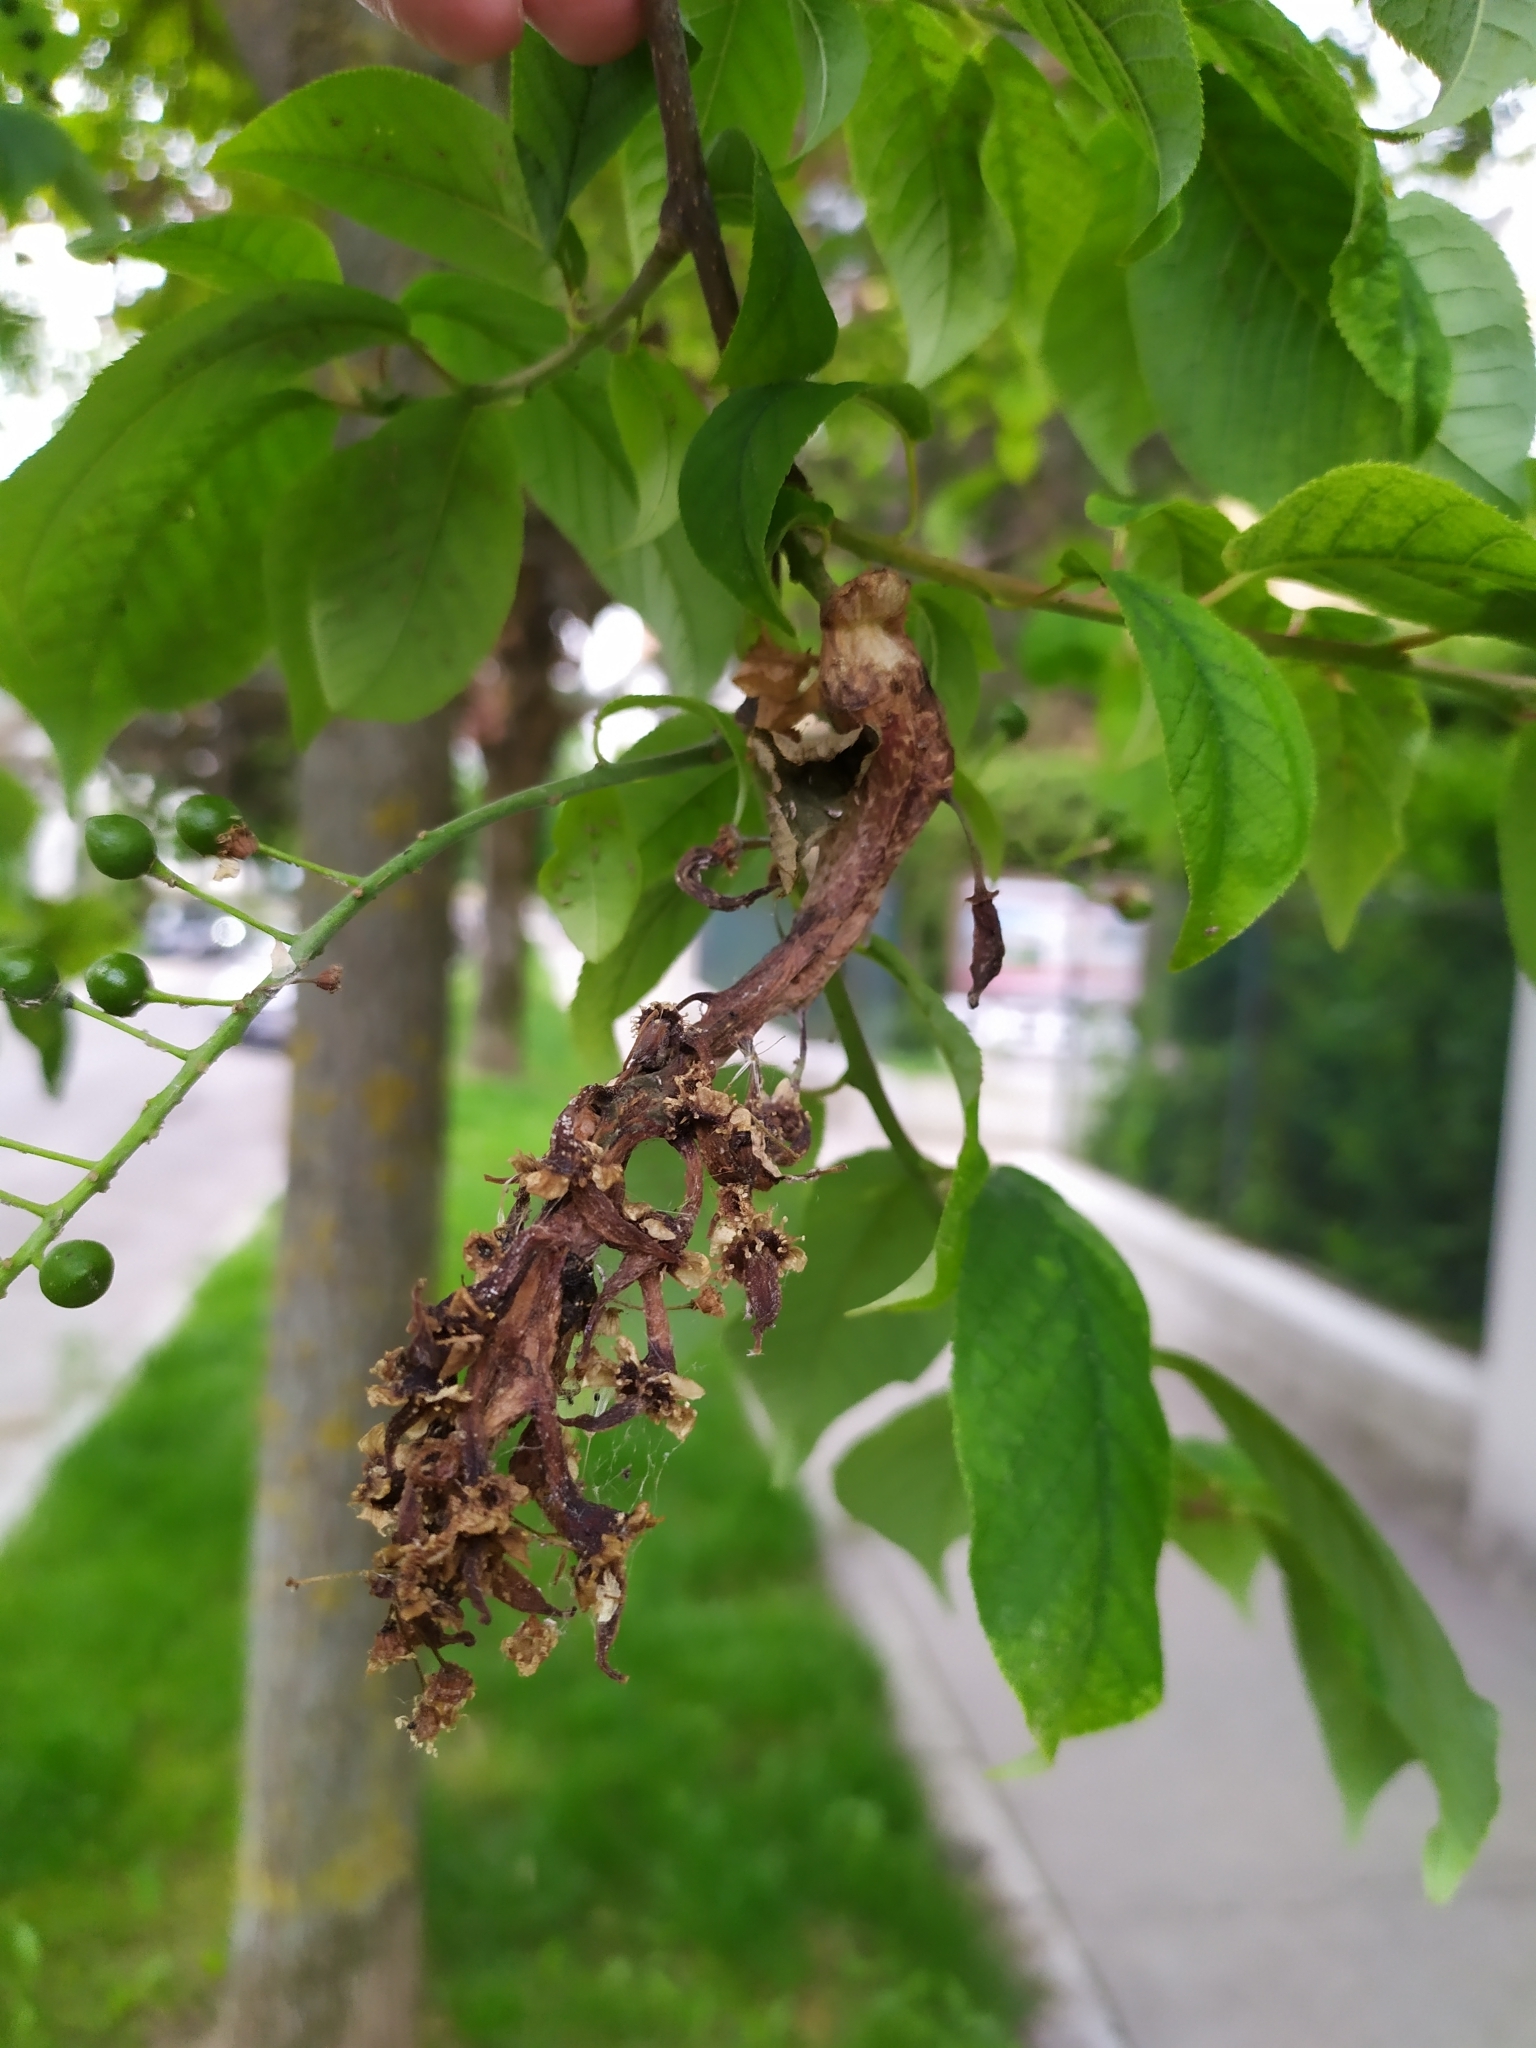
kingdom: Fungi
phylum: Ascomycota
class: Taphrinomycetes
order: Taphrinales
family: Taphrinaceae
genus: Taphrina
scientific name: Taphrina padi
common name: Bird cherry pocket
